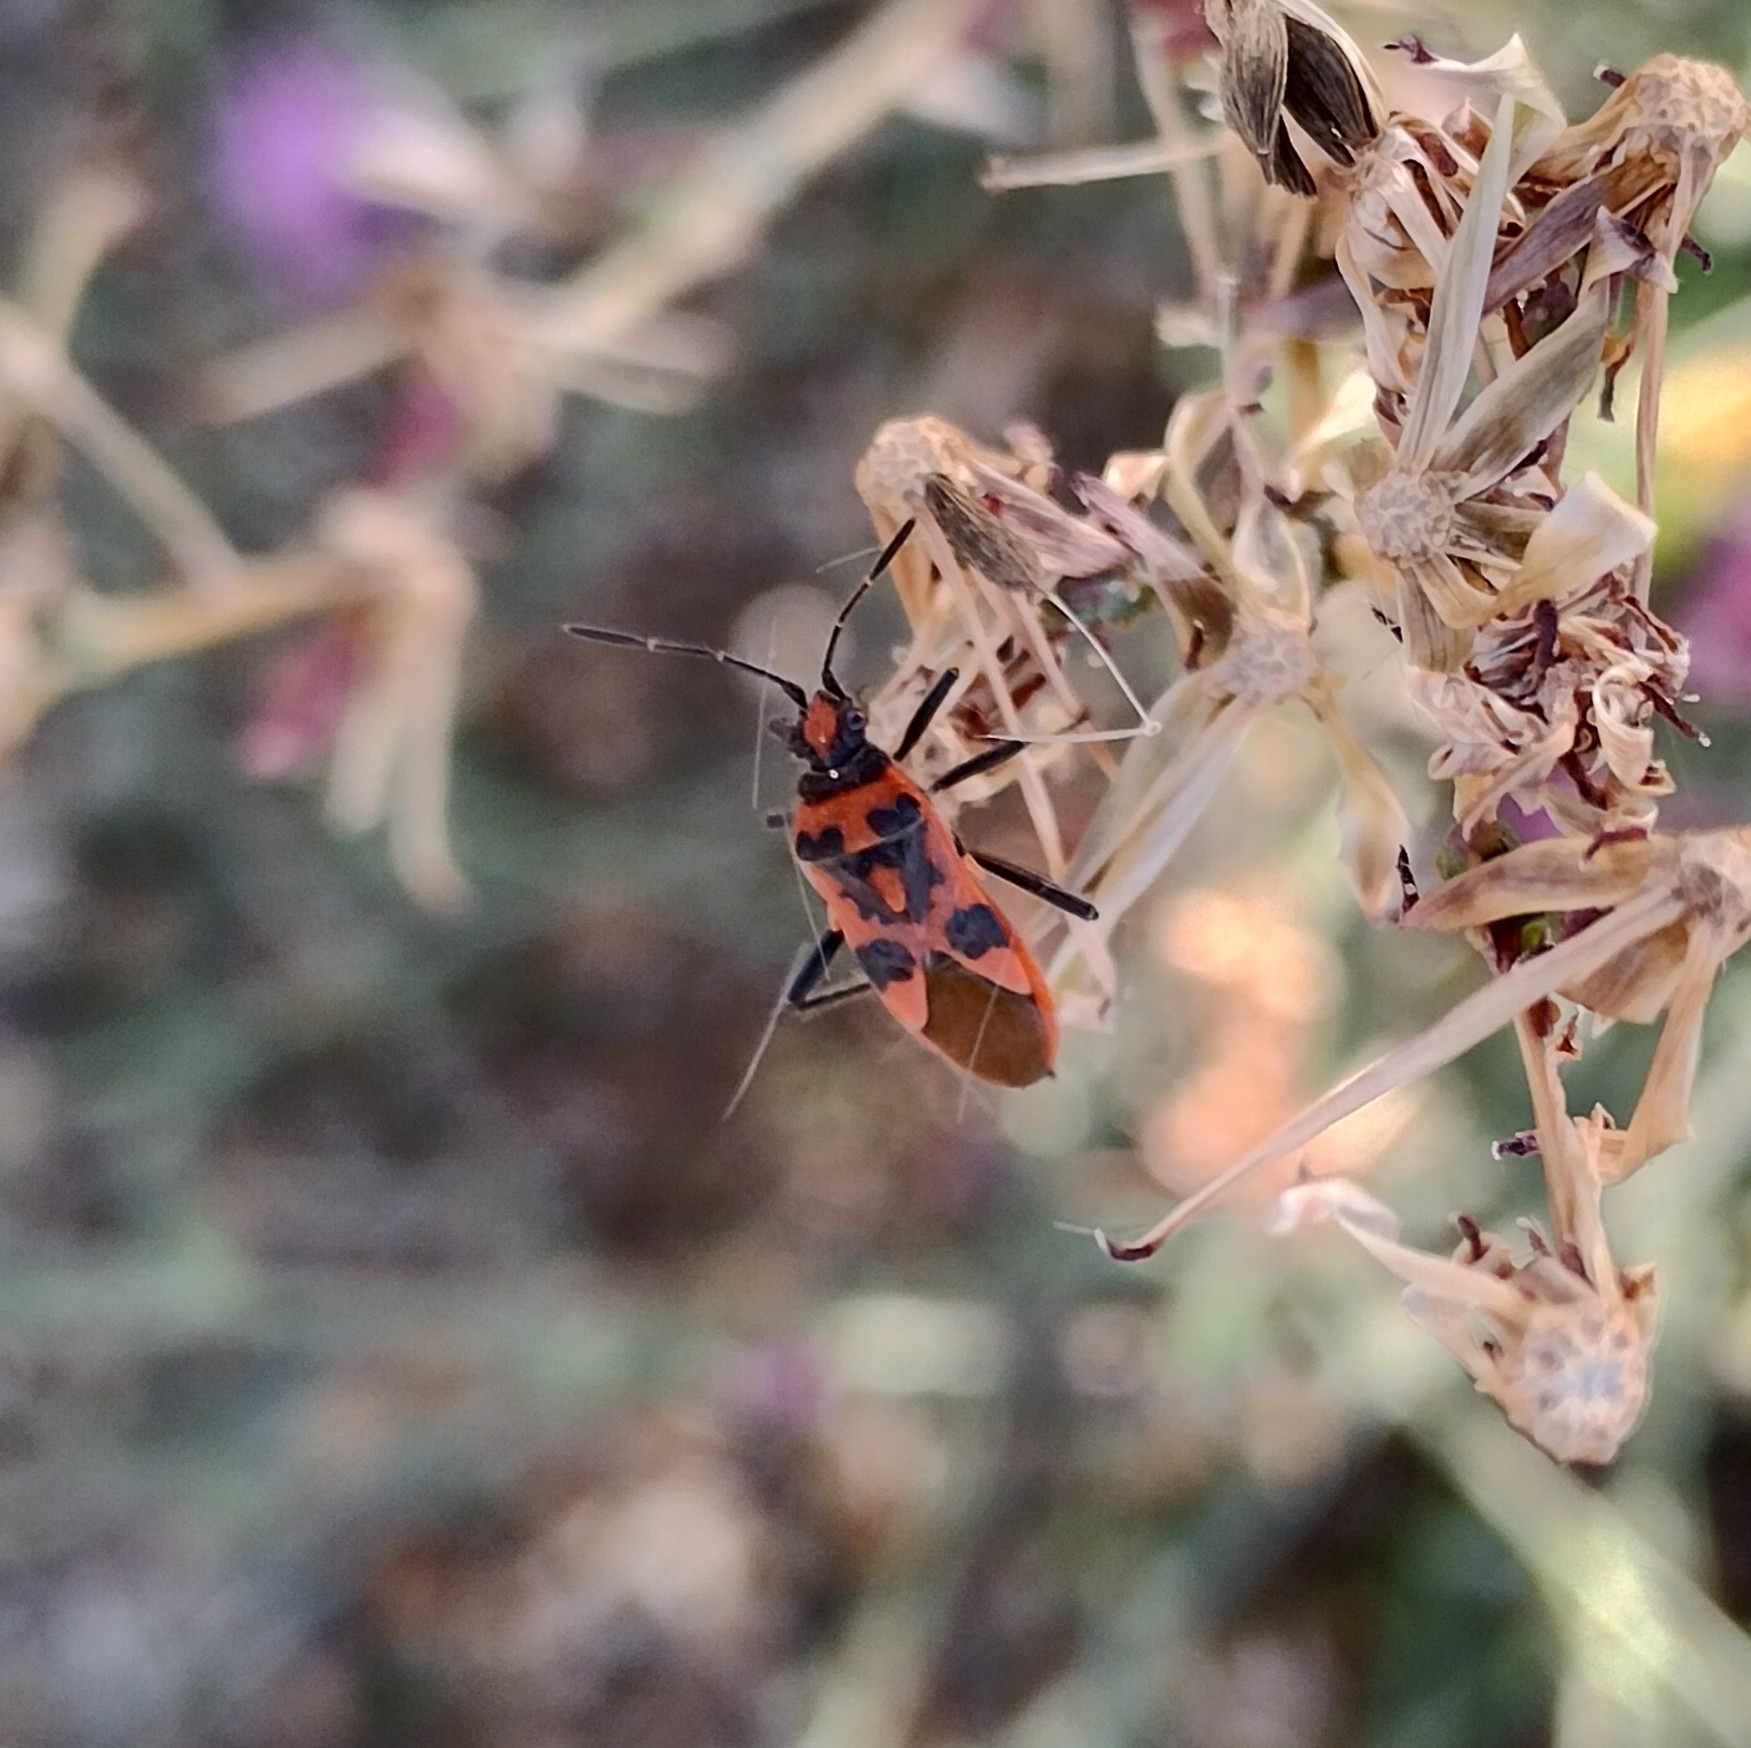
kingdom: Animalia
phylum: Arthropoda
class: Insecta
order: Hemiptera
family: Rhopalidae
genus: Corizus
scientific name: Corizus hyoscyami
